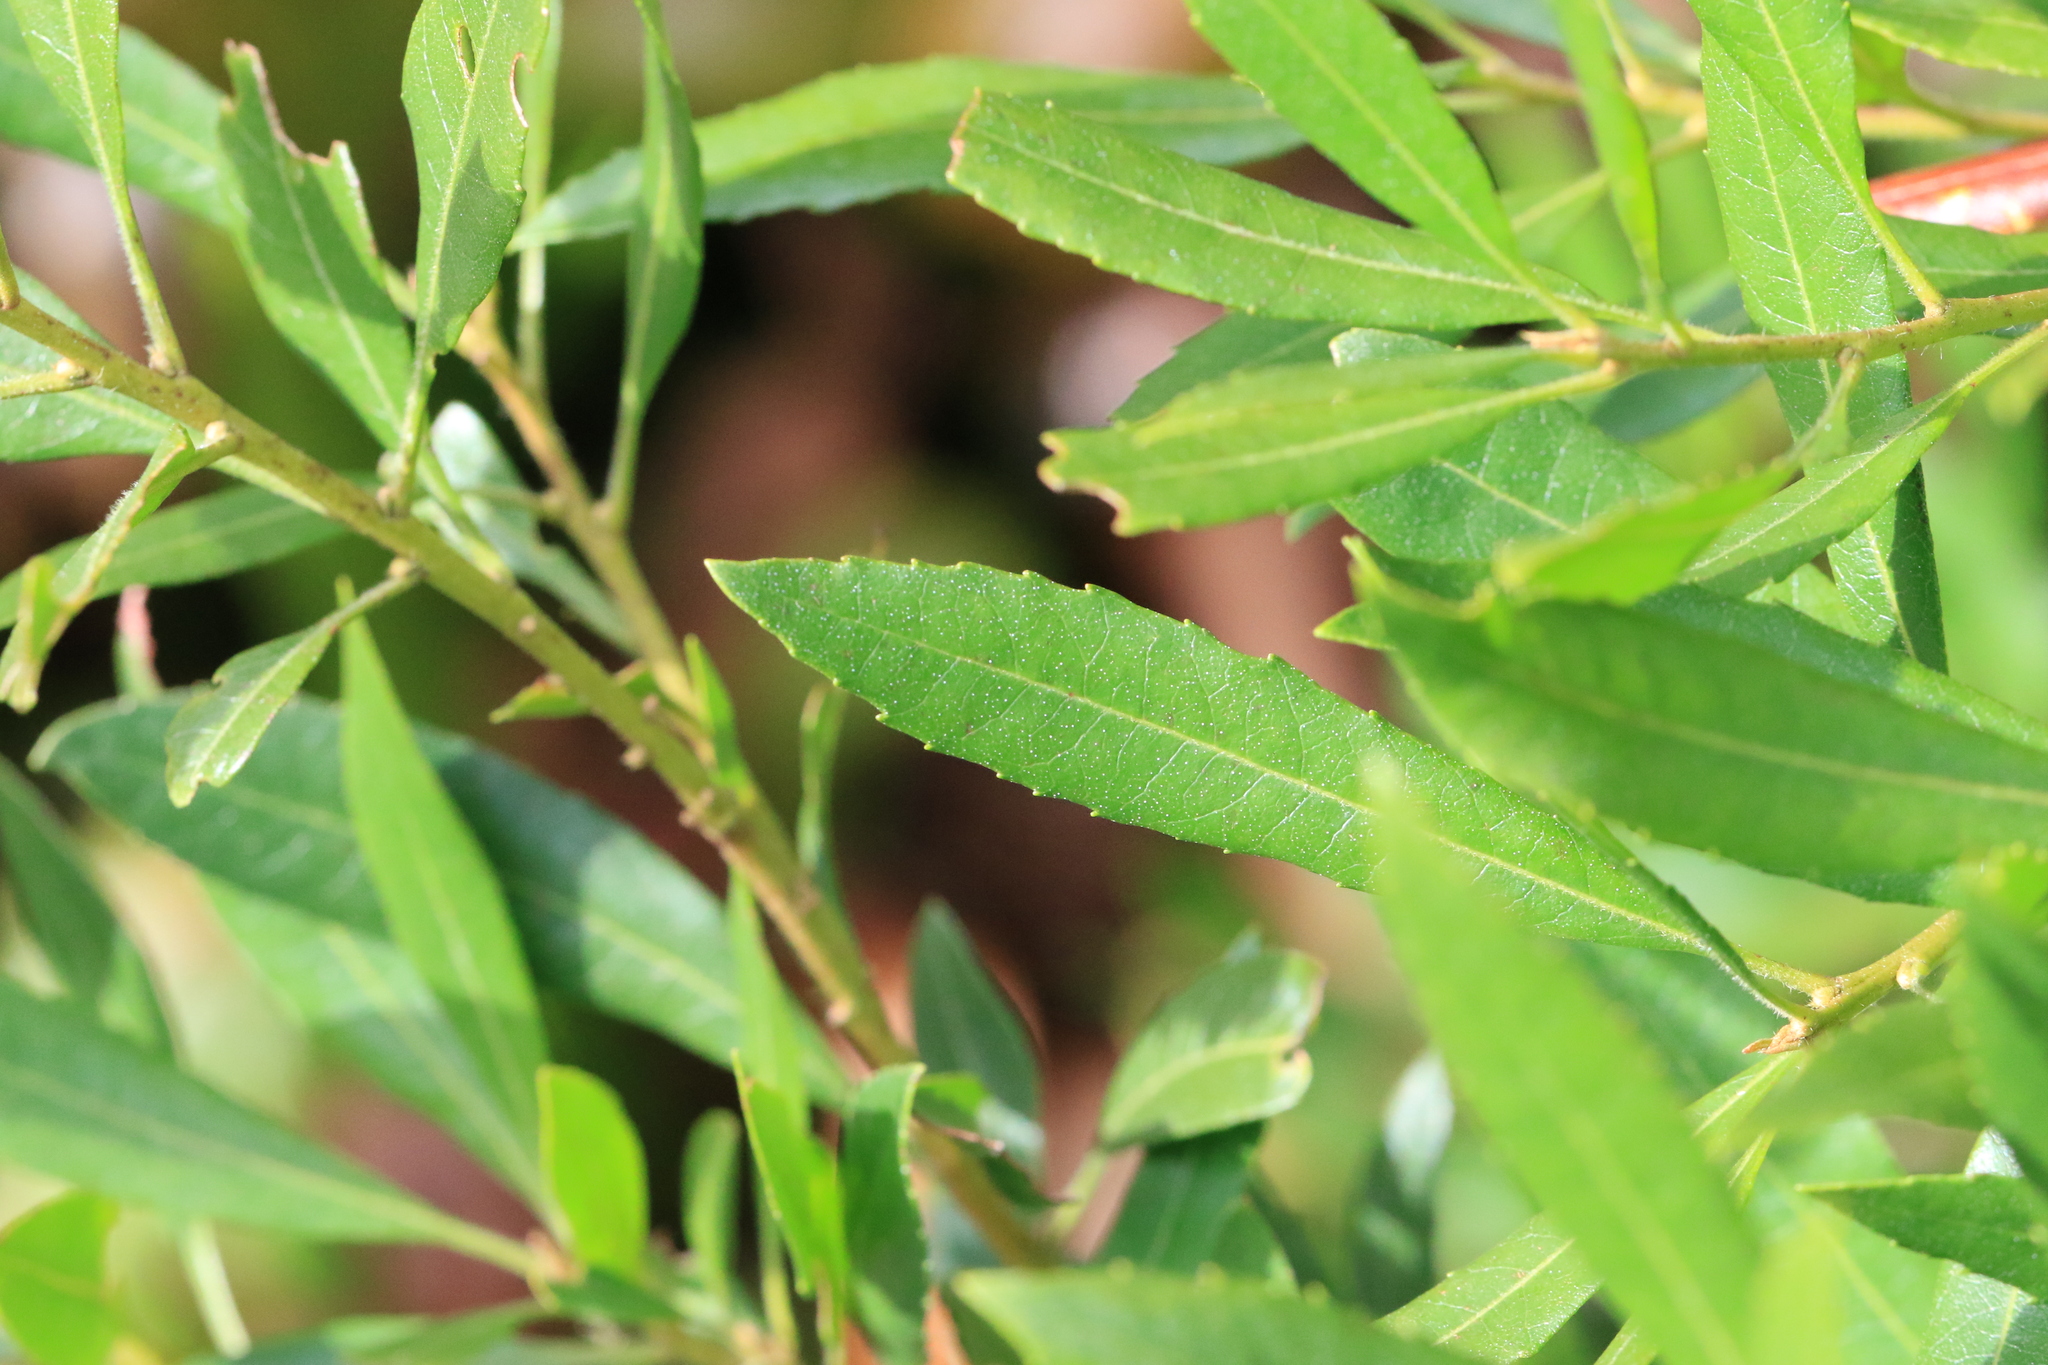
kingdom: Plantae
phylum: Tracheophyta
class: Magnoliopsida
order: Fagales
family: Myricaceae
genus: Morella
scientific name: Morella californica
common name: California wax-myrtle
